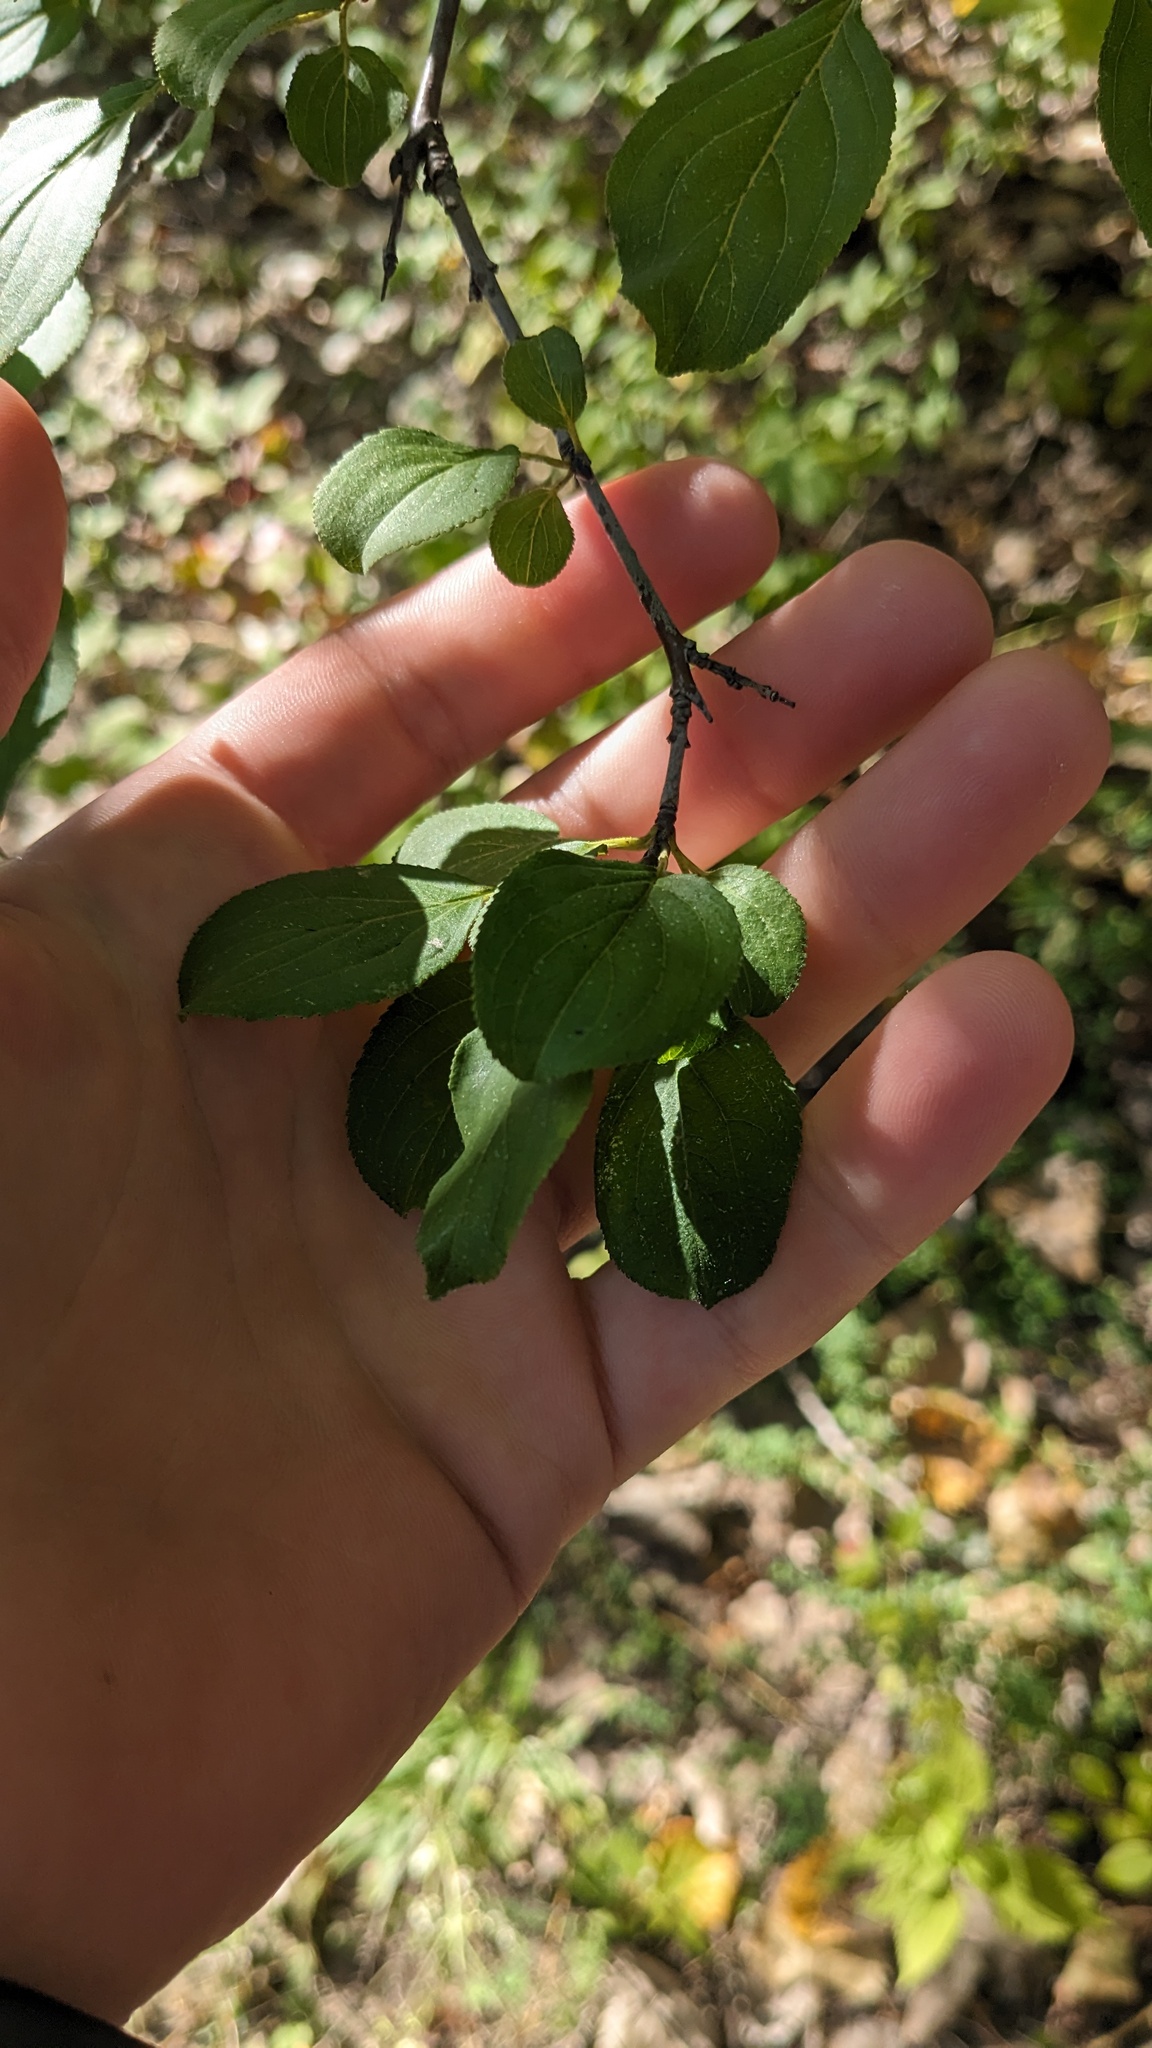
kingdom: Plantae
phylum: Tracheophyta
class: Magnoliopsida
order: Rosales
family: Rhamnaceae
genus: Rhamnus
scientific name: Rhamnus cathartica
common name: Common buckthorn
